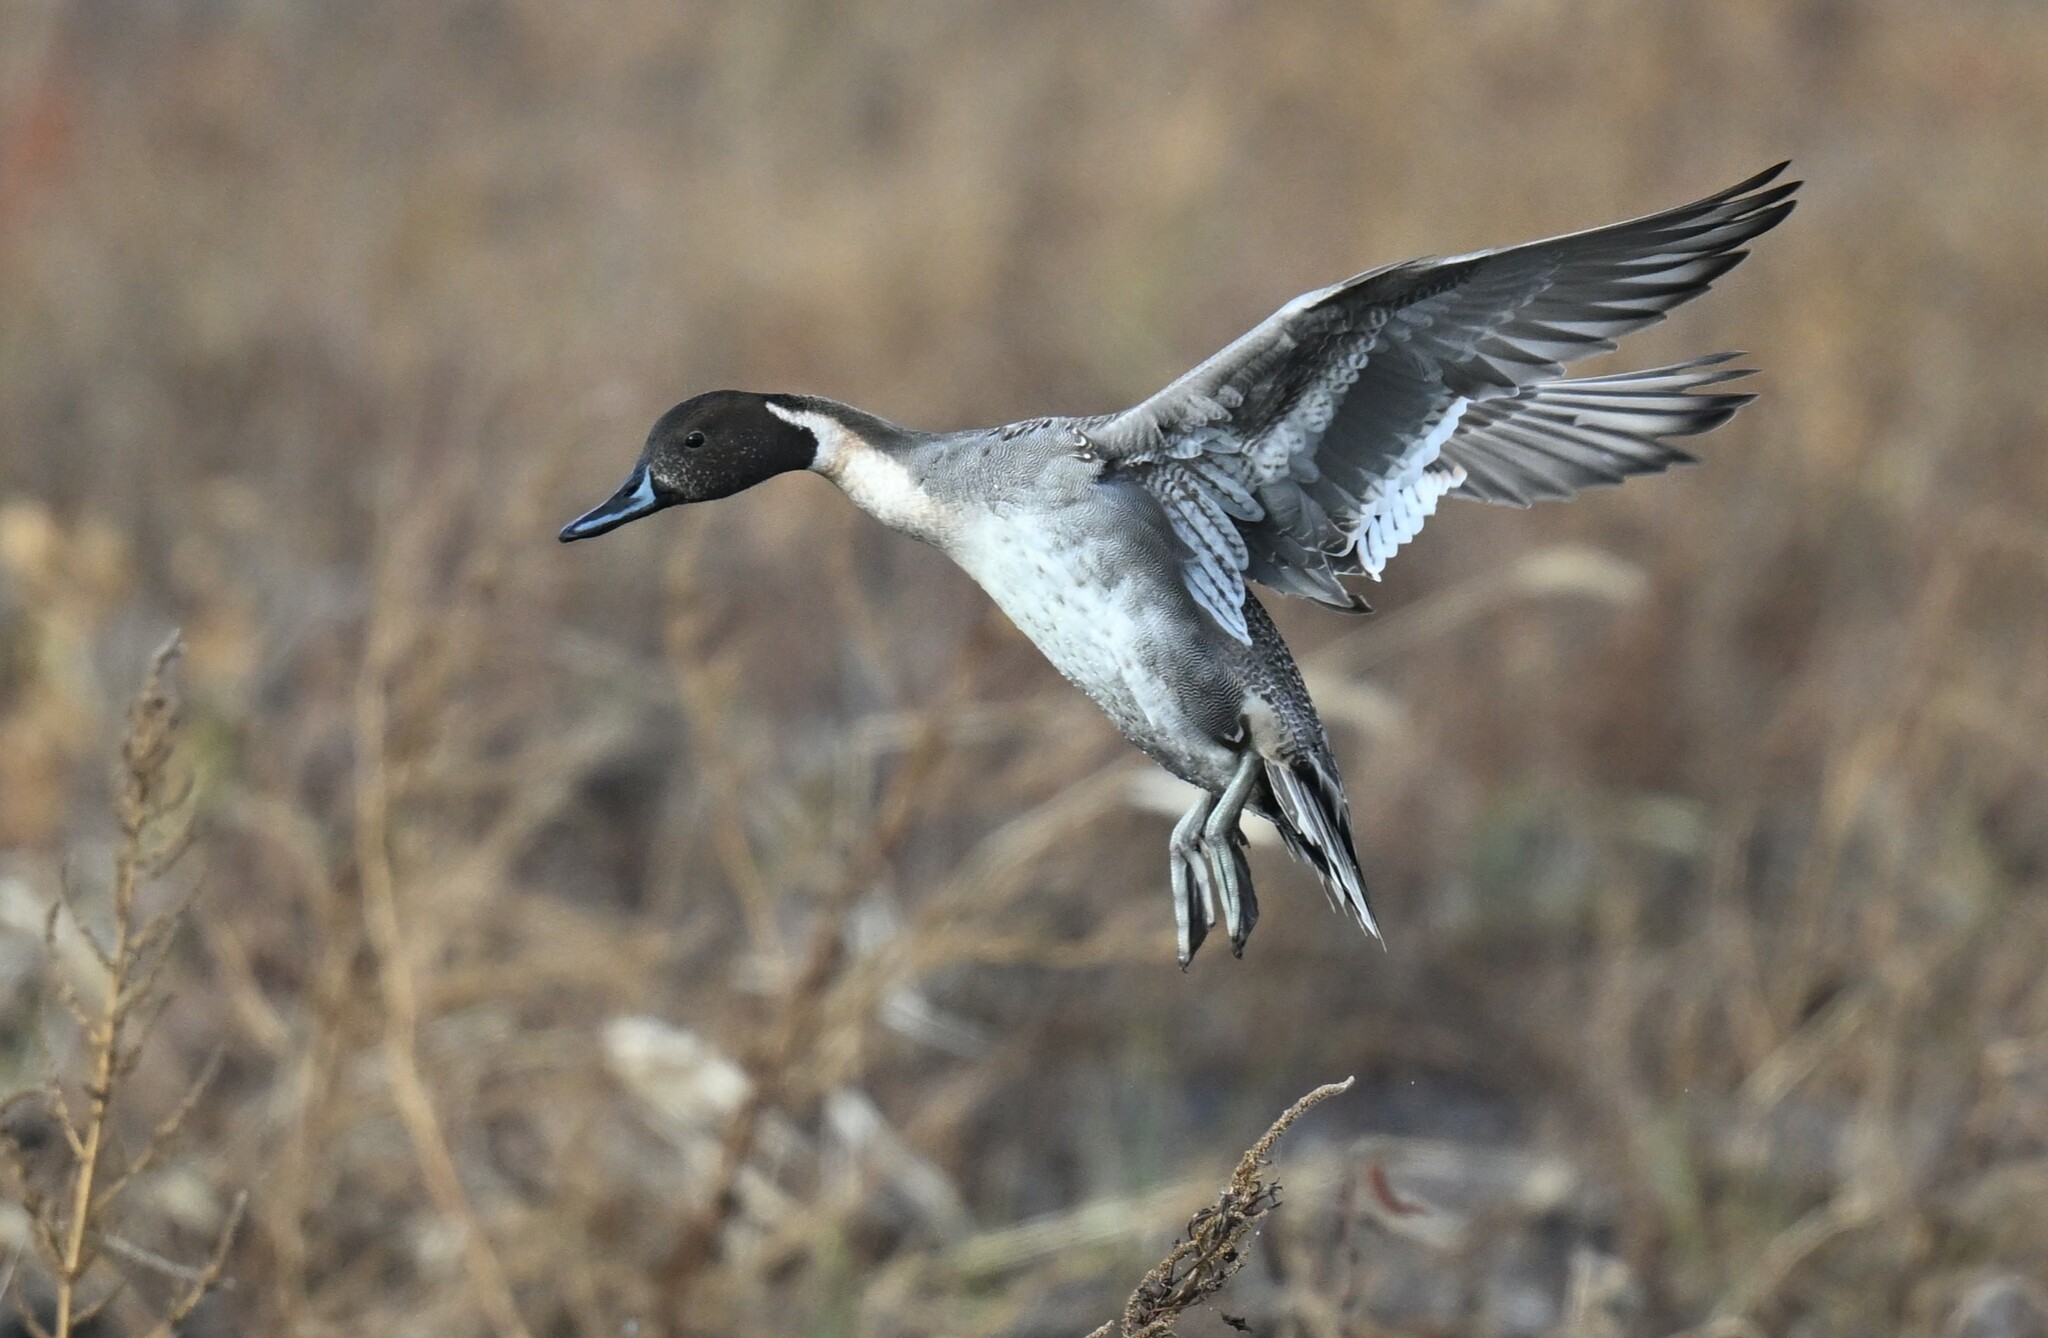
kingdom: Animalia
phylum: Chordata
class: Aves
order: Anseriformes
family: Anatidae
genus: Anas
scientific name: Anas acuta
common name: Northern pintail
